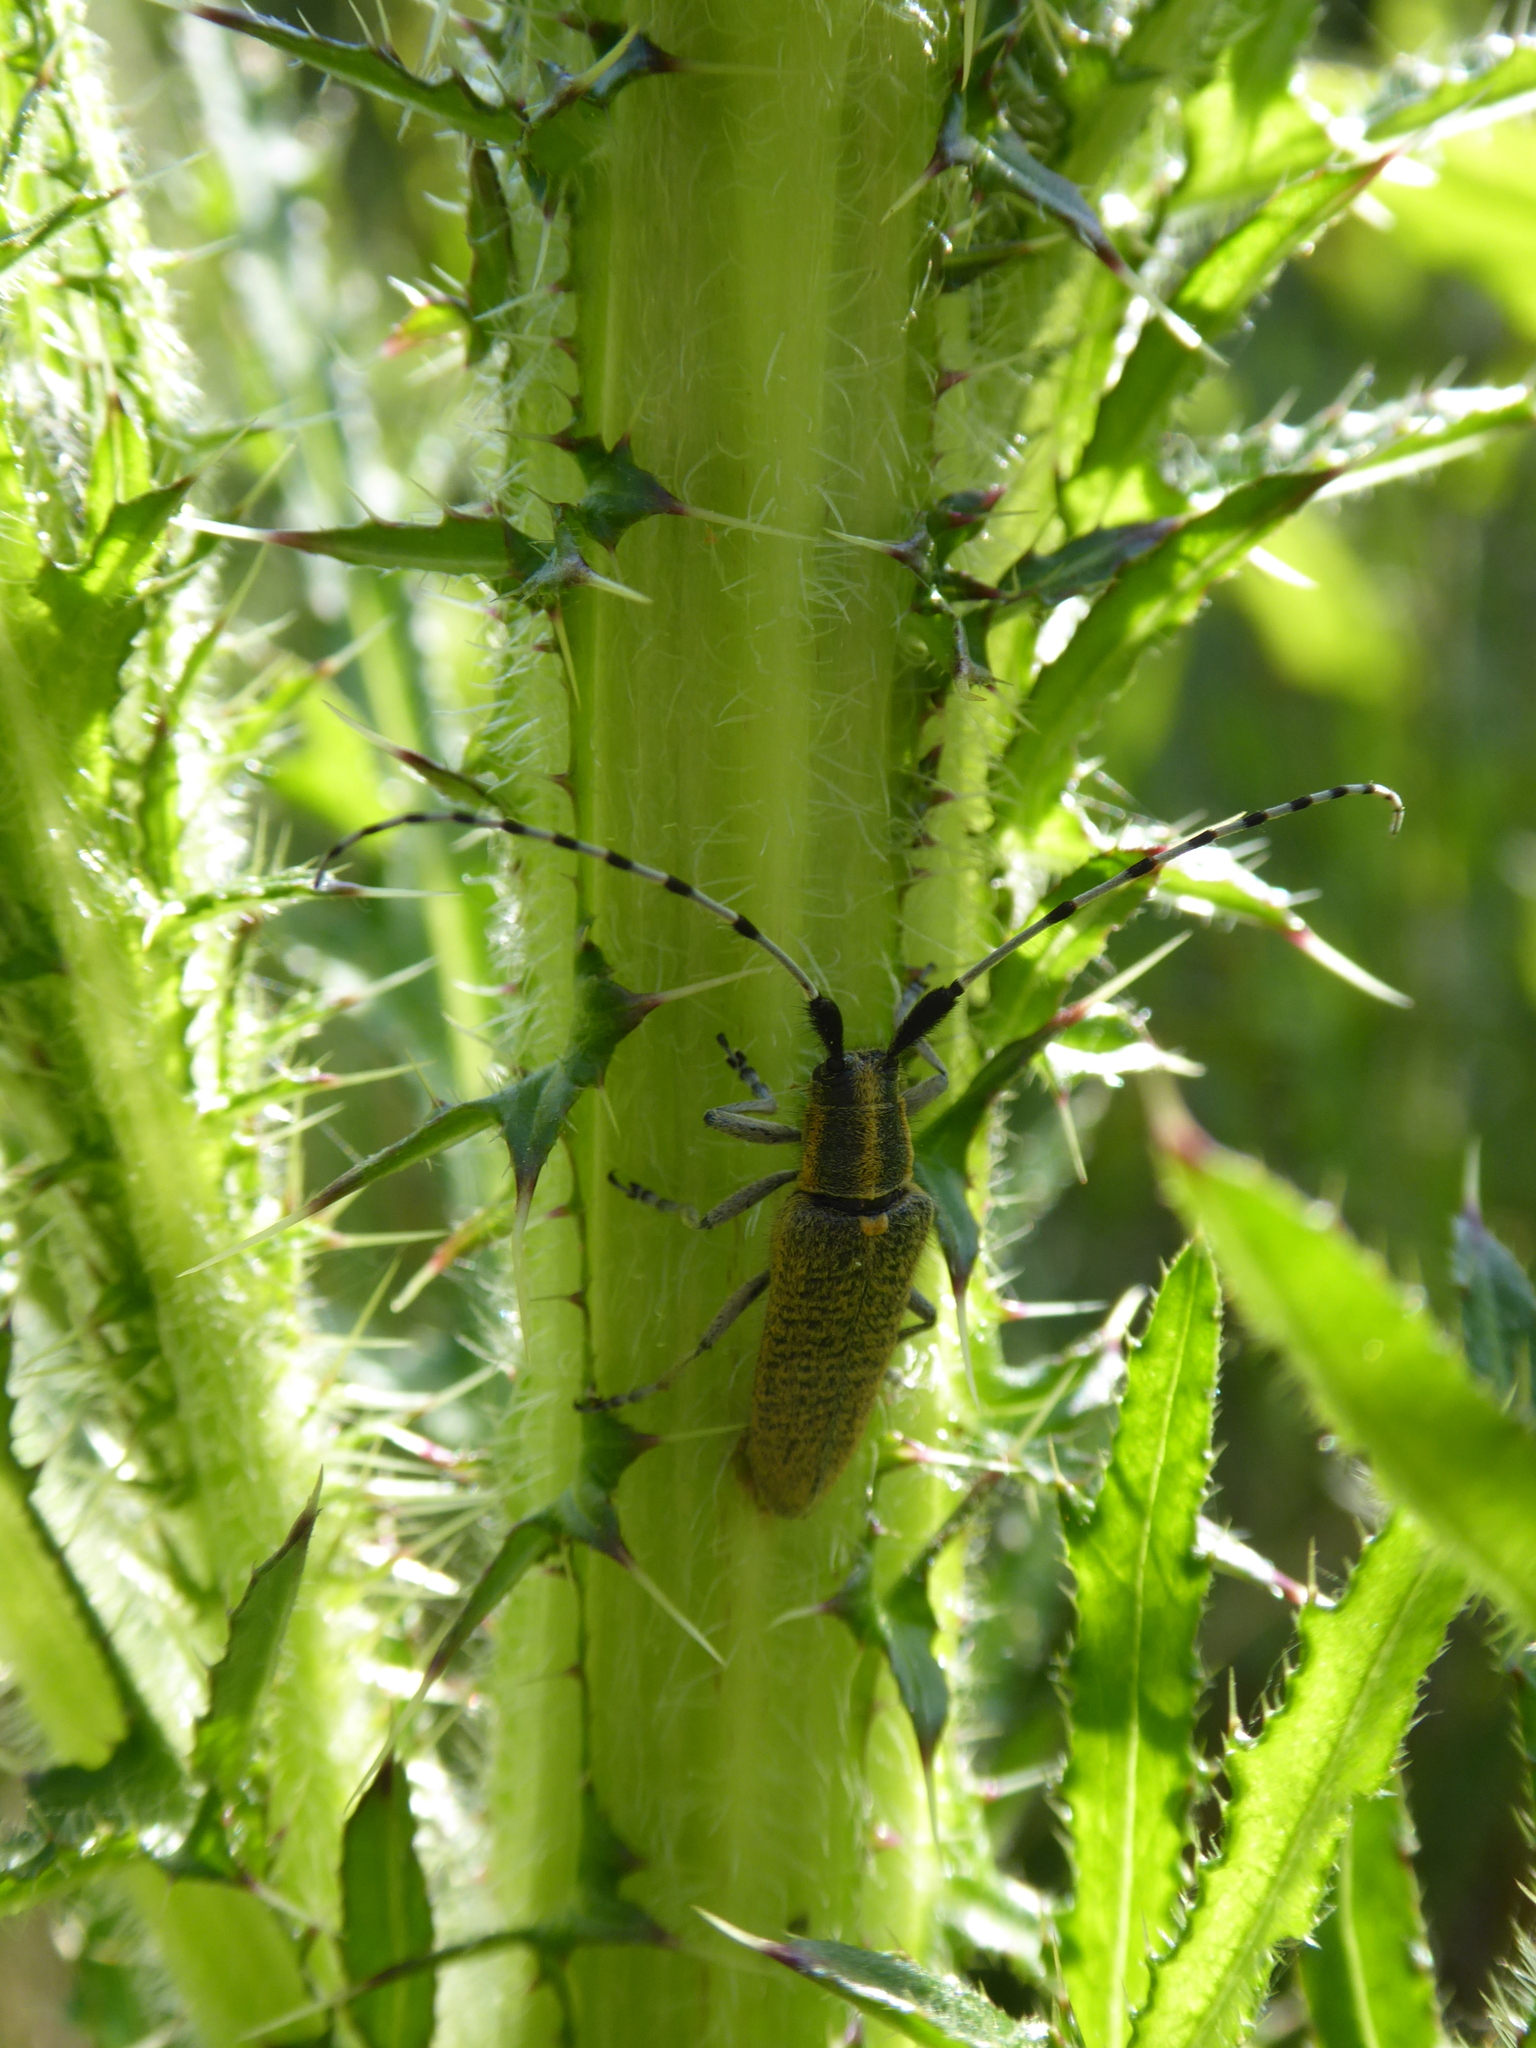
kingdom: Animalia
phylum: Arthropoda
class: Insecta
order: Coleoptera
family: Cerambycidae
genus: Agapanthia
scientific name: Agapanthia villosoviridescens
